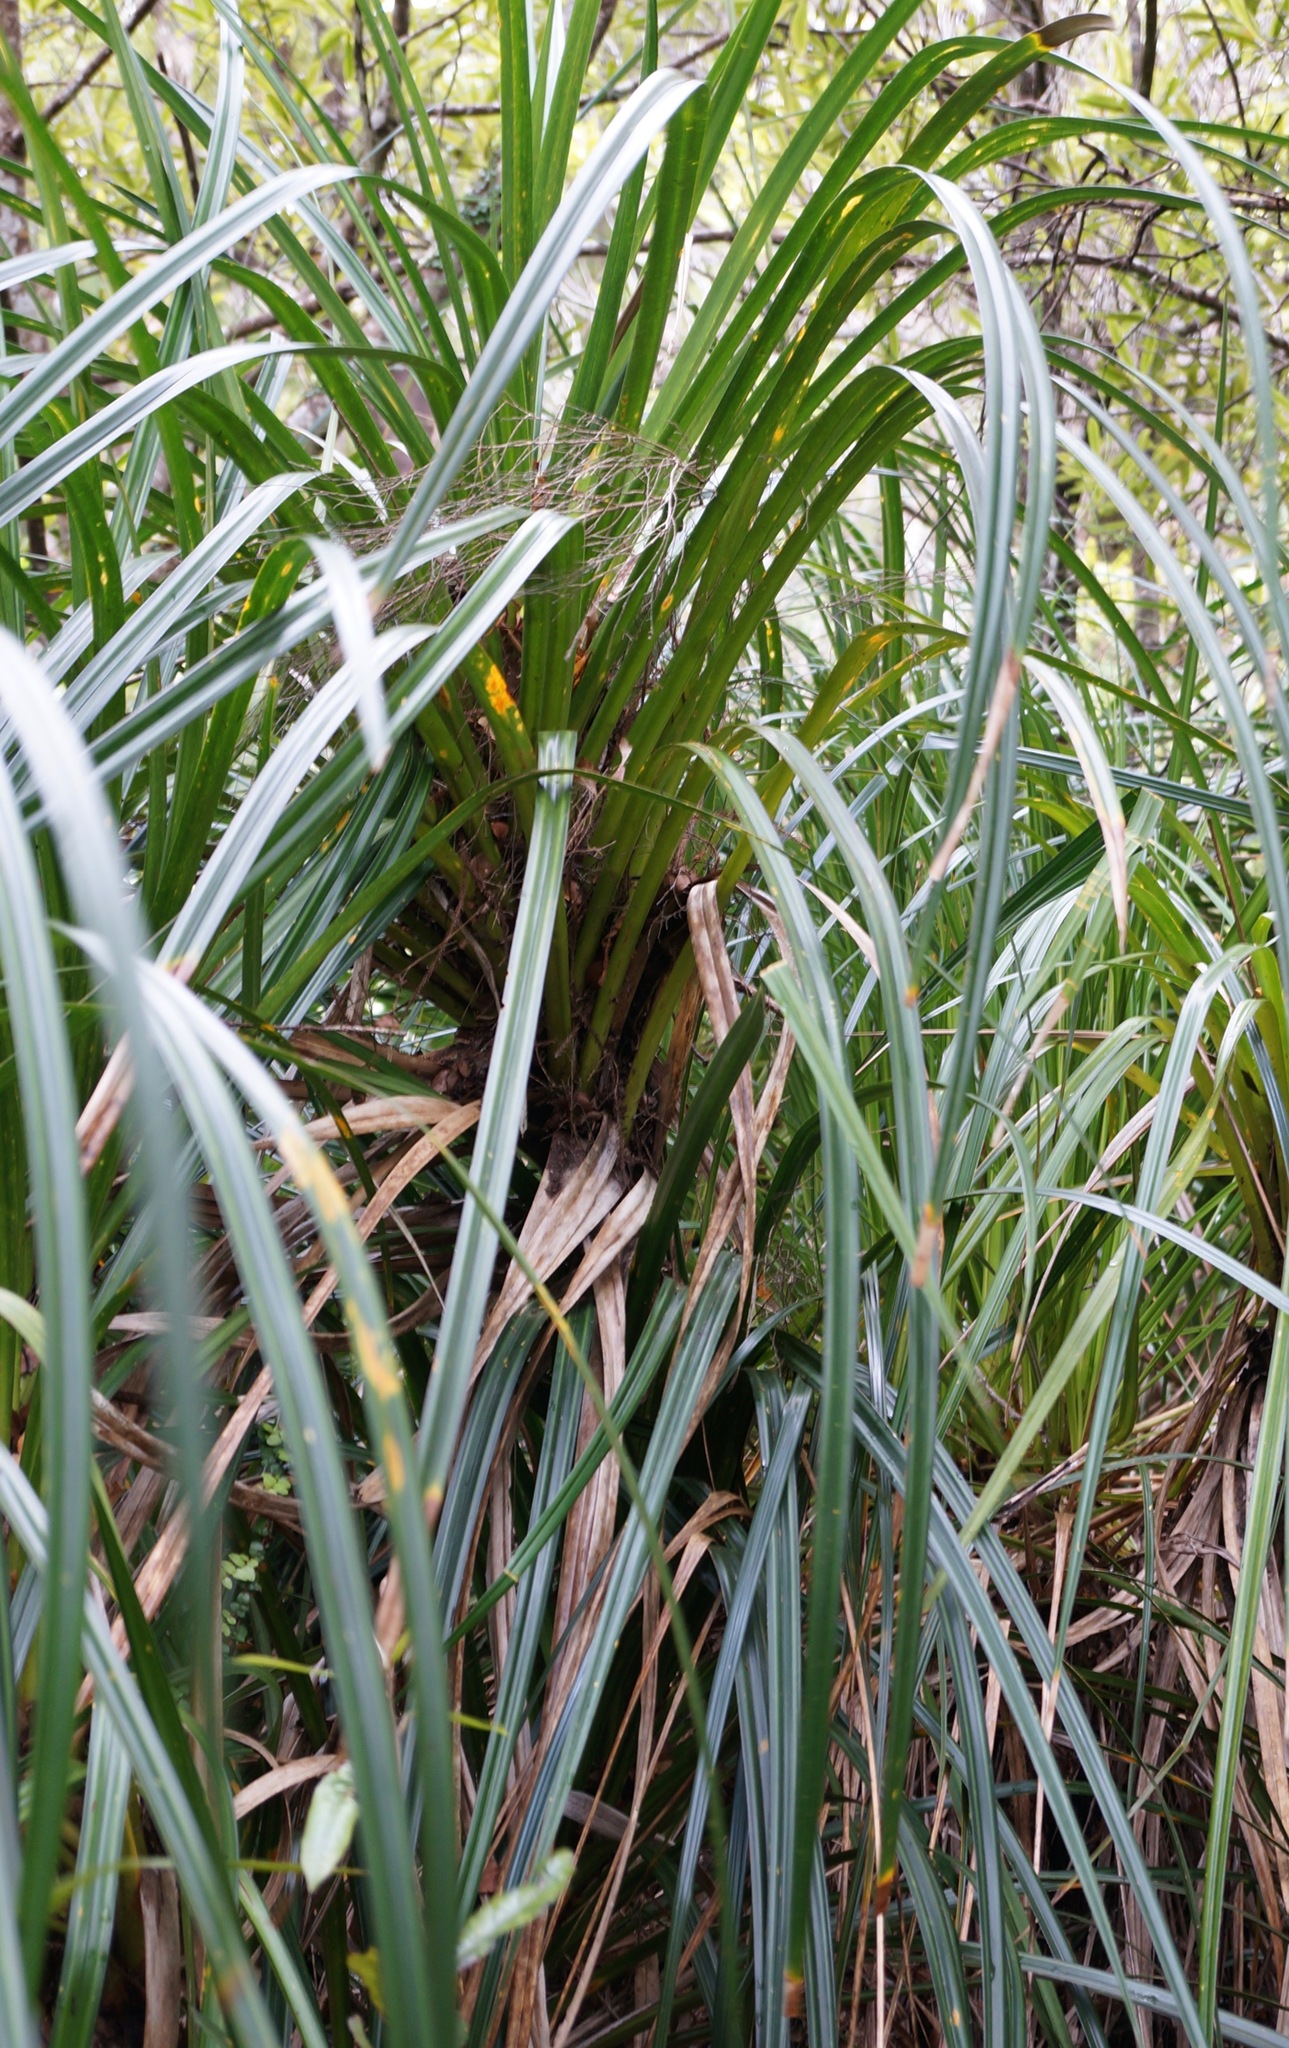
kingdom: Plantae
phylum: Tracheophyta
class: Liliopsida
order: Pandanales
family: Pandanaceae
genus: Freycinetia
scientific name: Freycinetia banksii
